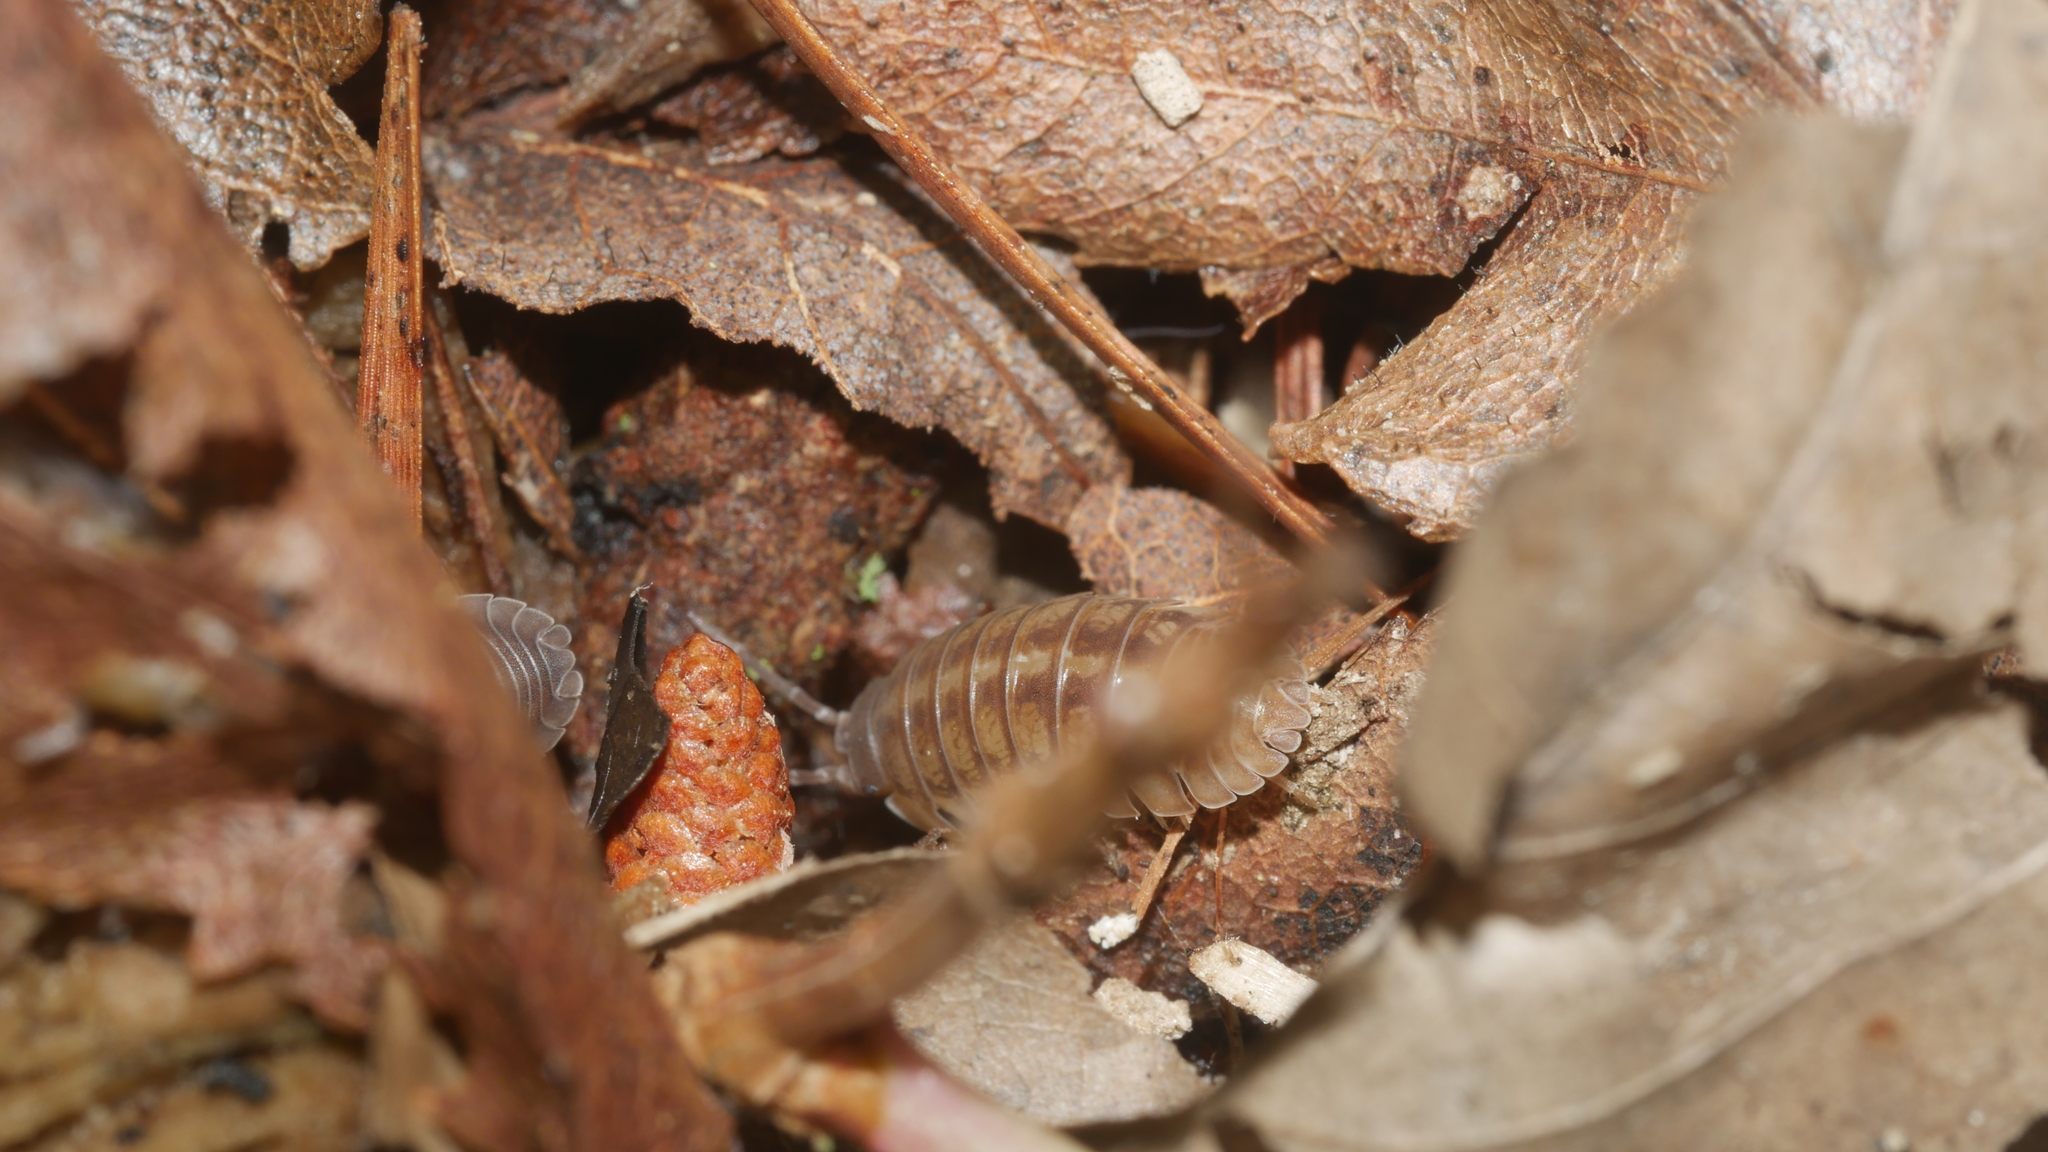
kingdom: Animalia
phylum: Arthropoda
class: Malacostraca
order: Isopoda
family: Armadillidiidae
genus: Armadillidium
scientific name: Armadillidium nasatum
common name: Isopod
